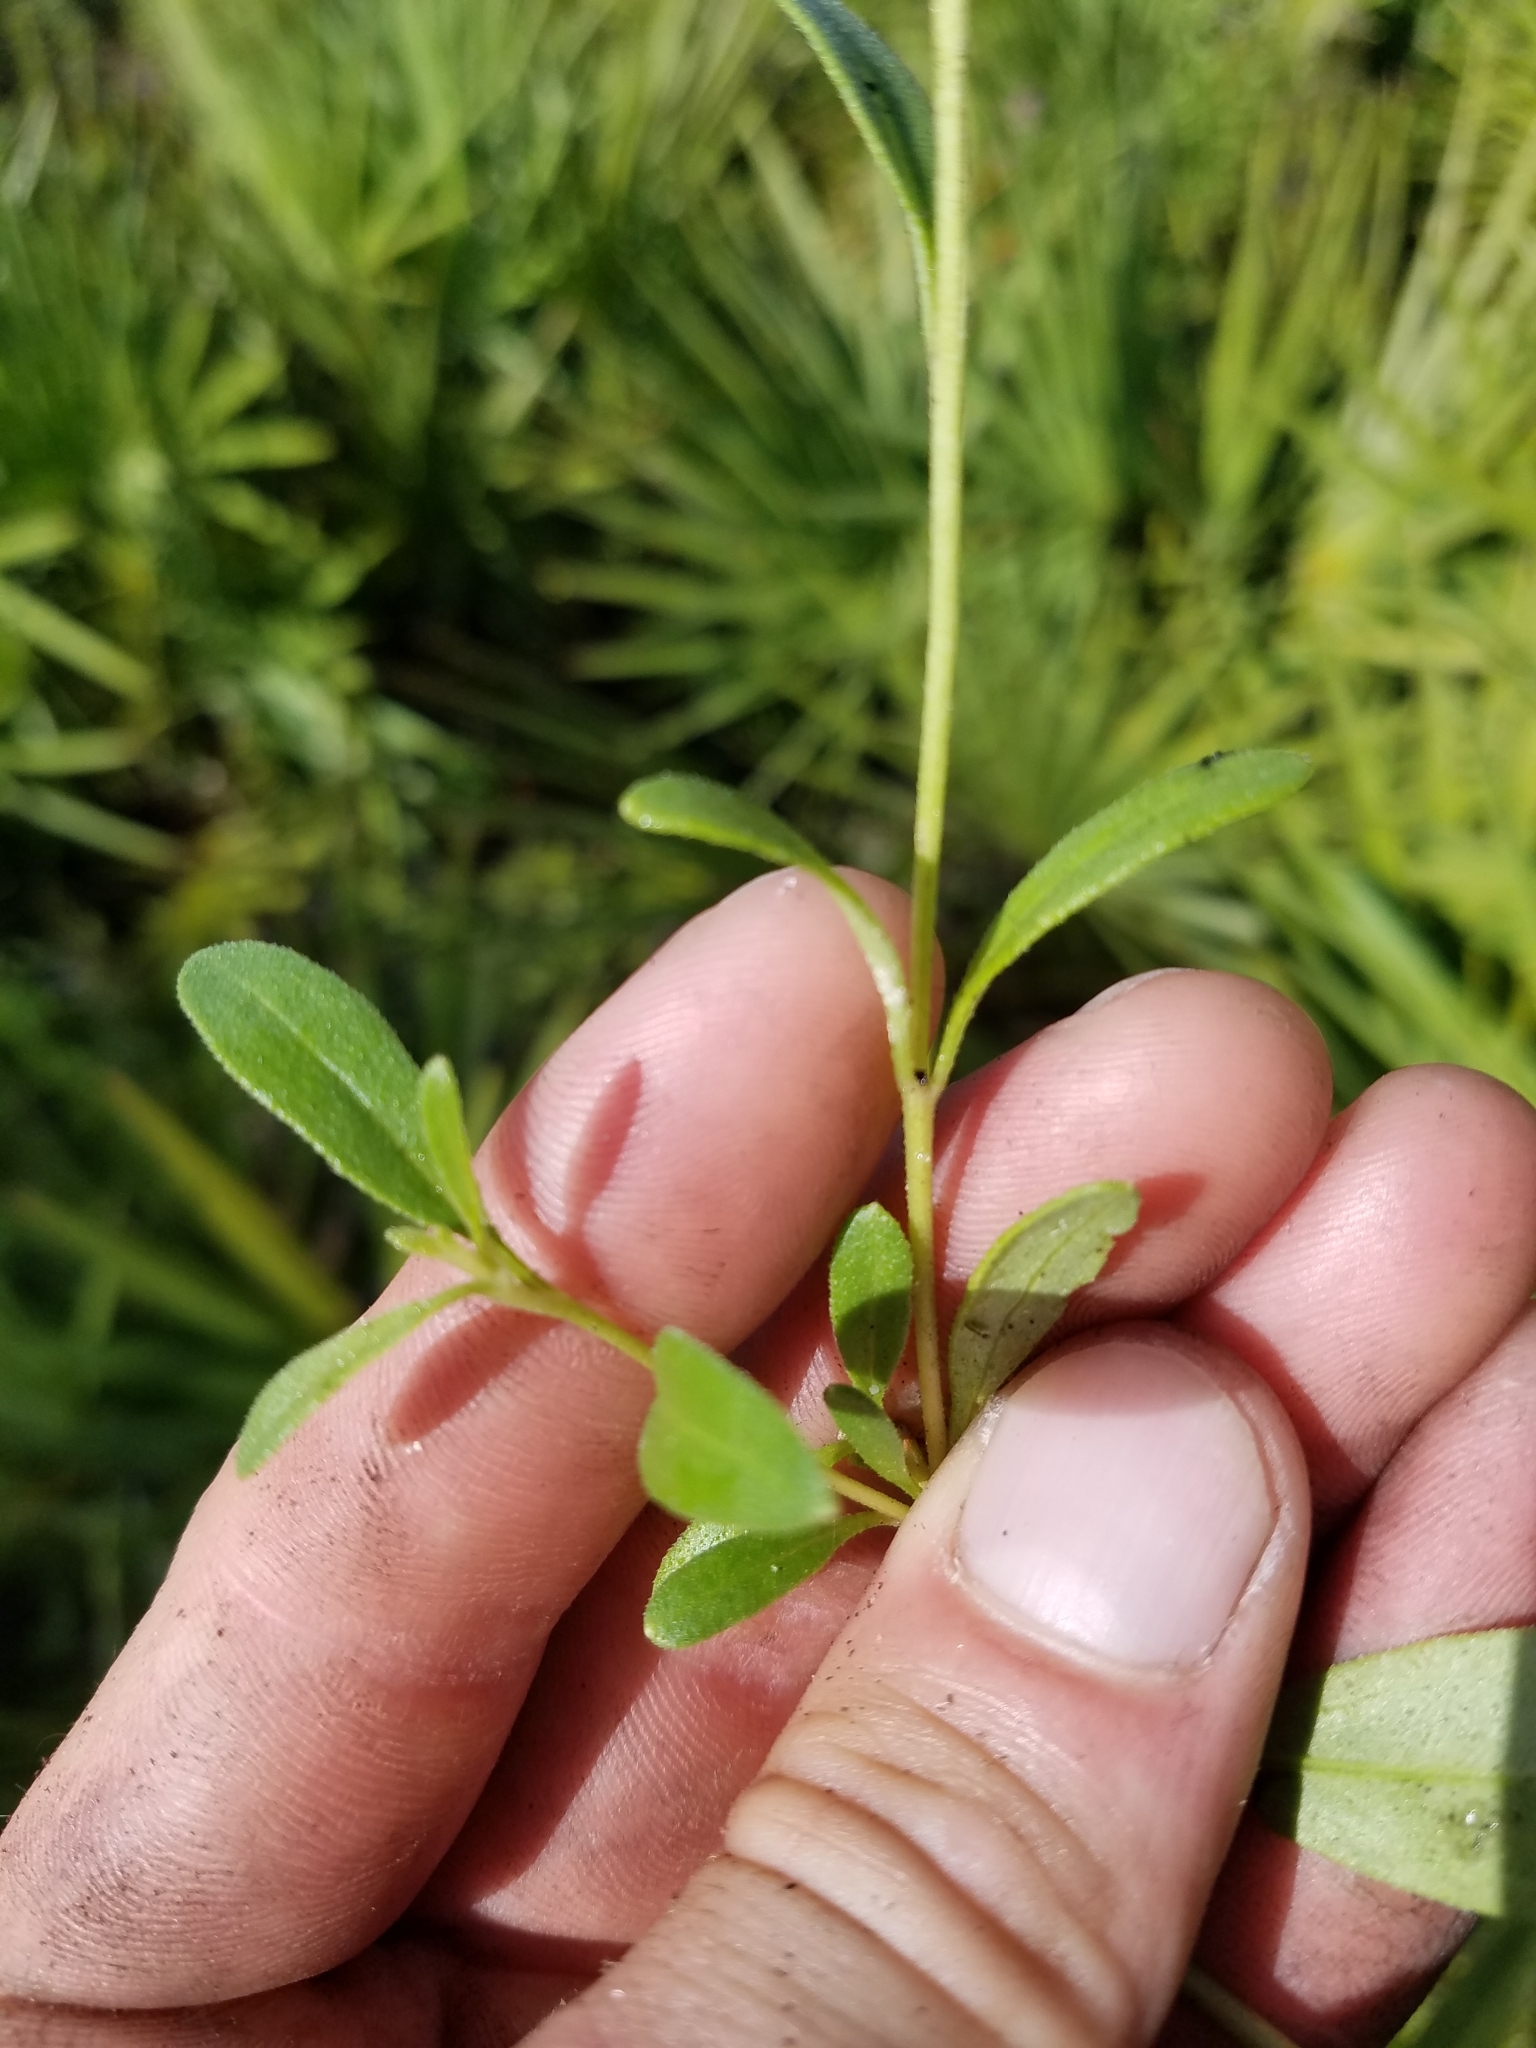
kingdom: Plantae
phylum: Tracheophyta
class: Magnoliopsida
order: Asterales
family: Asteraceae
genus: Palafoxia
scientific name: Palafoxia integrifolia
